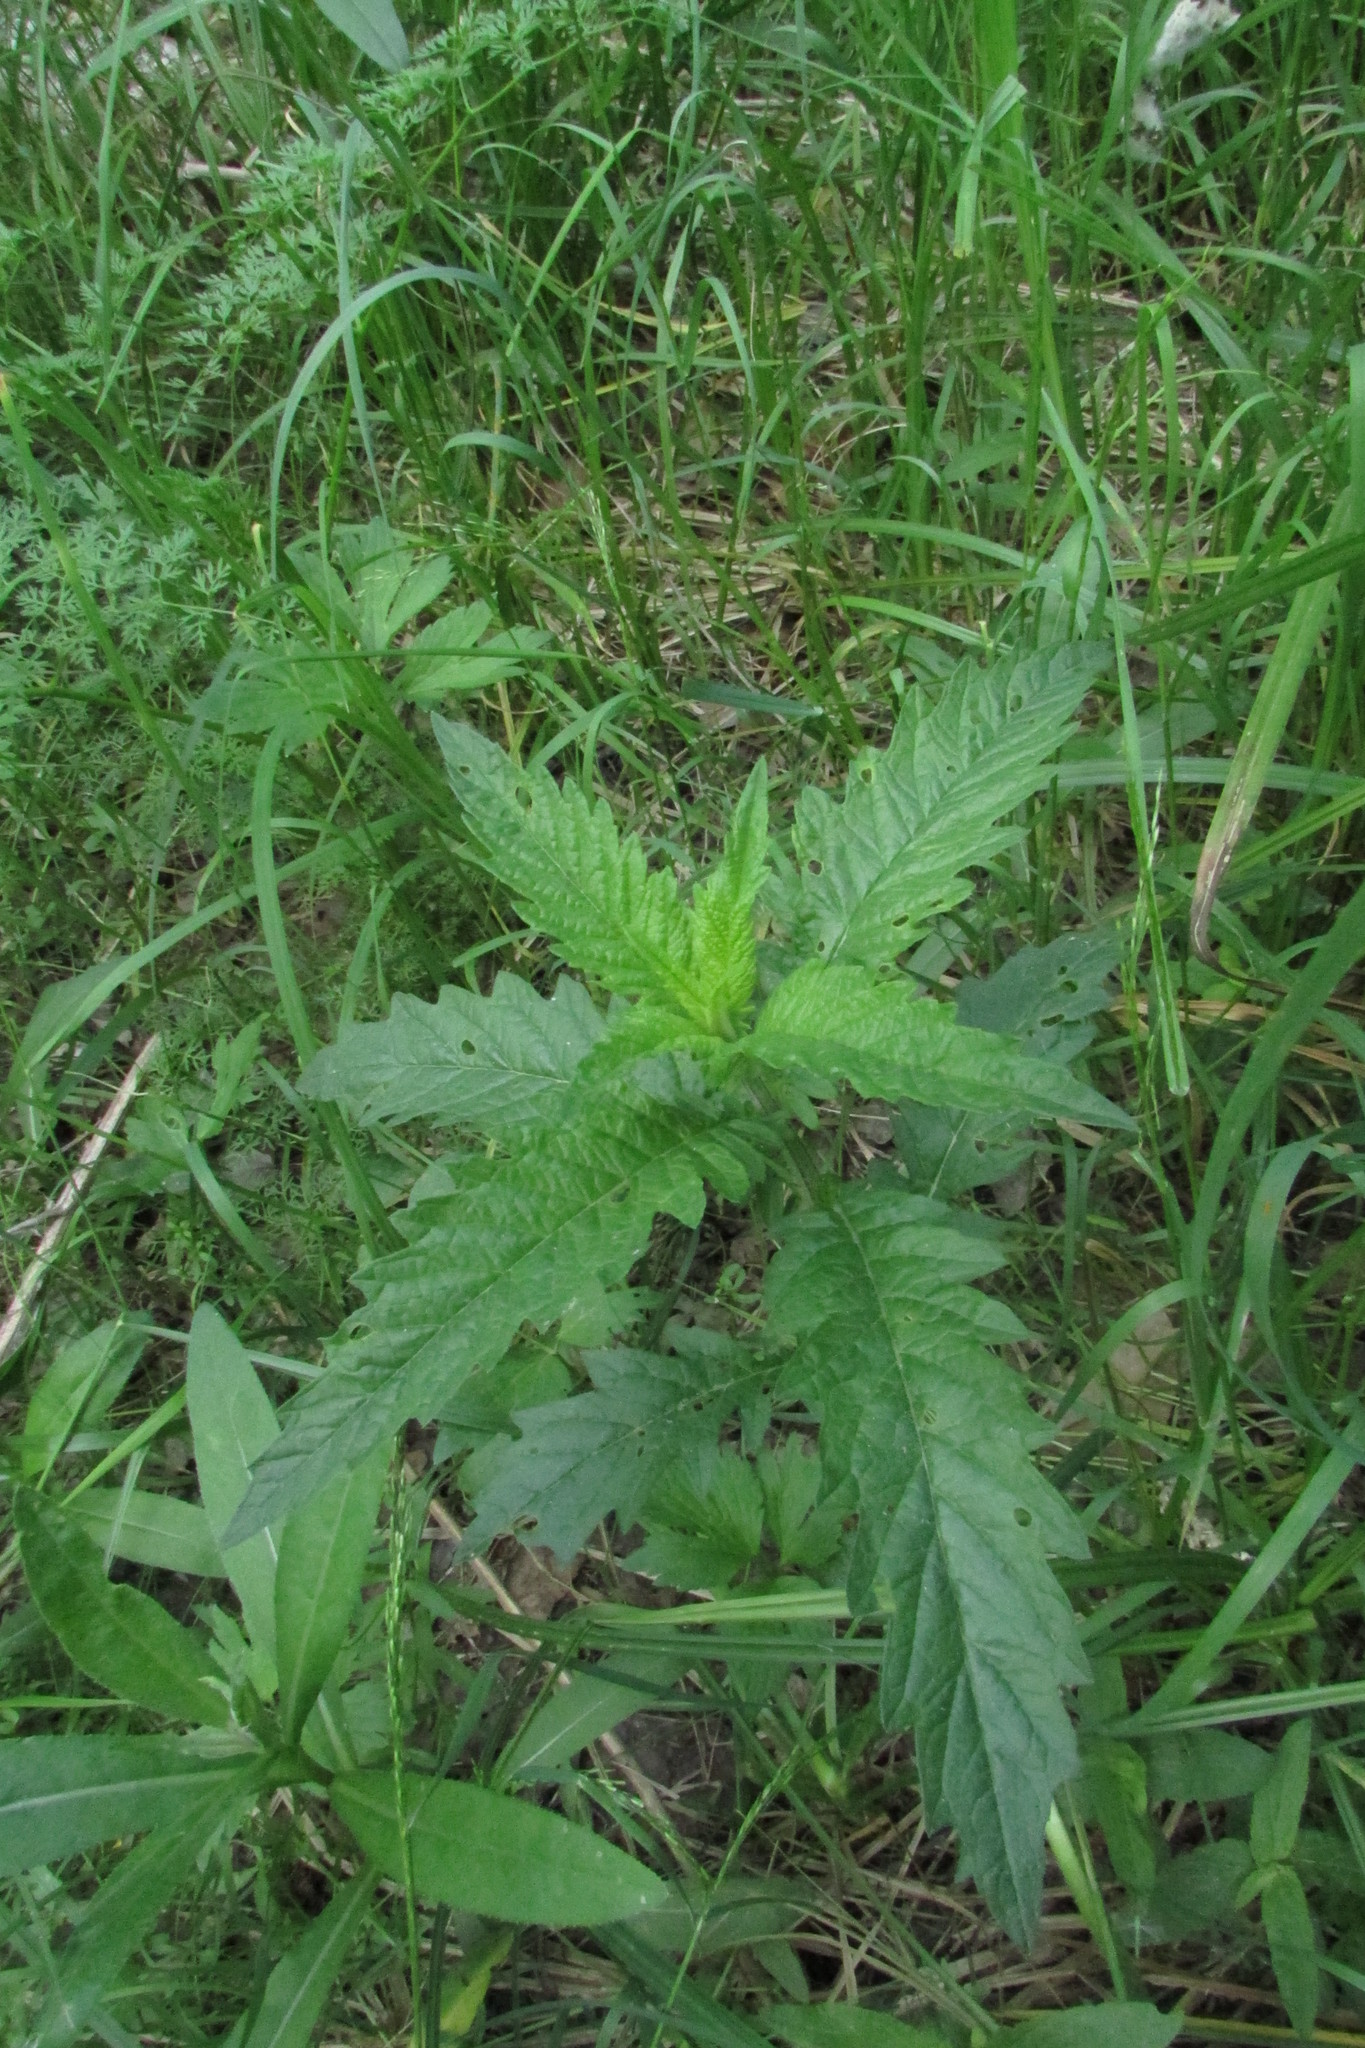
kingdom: Plantae
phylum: Tracheophyta
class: Magnoliopsida
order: Lamiales
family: Lamiaceae
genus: Lycopus
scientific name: Lycopus europaeus
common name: European bugleweed
